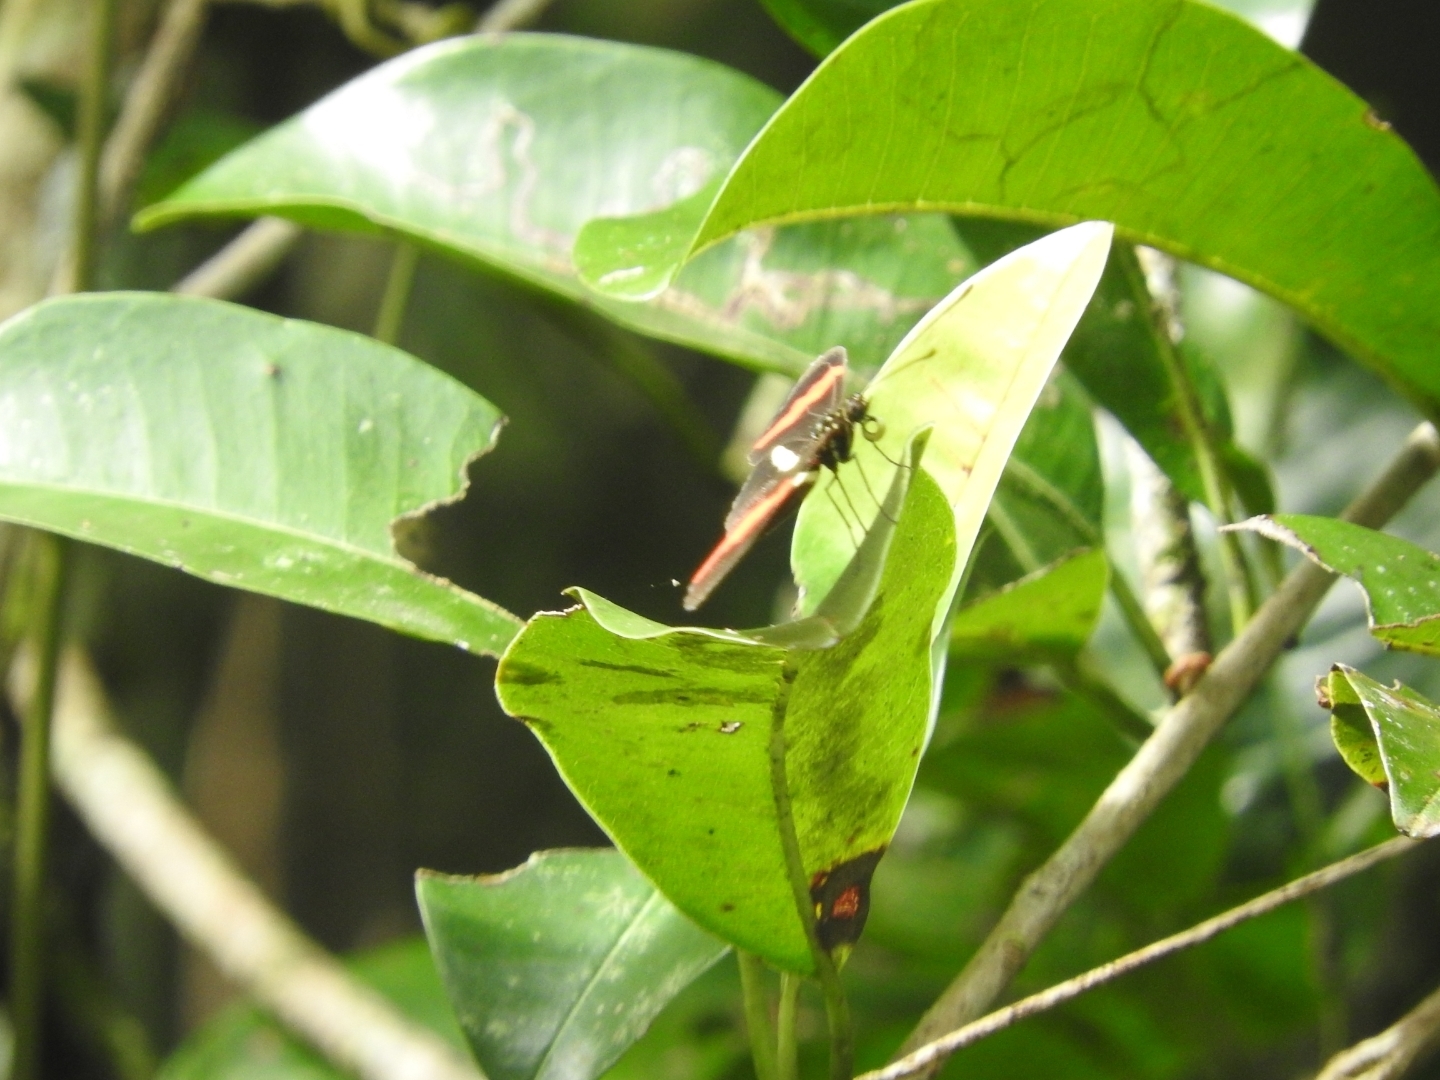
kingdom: Animalia
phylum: Arthropoda
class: Insecta
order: Lepidoptera
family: Nymphalidae
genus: Tirumala
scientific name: Tirumala petiverana
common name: Blue monarch
